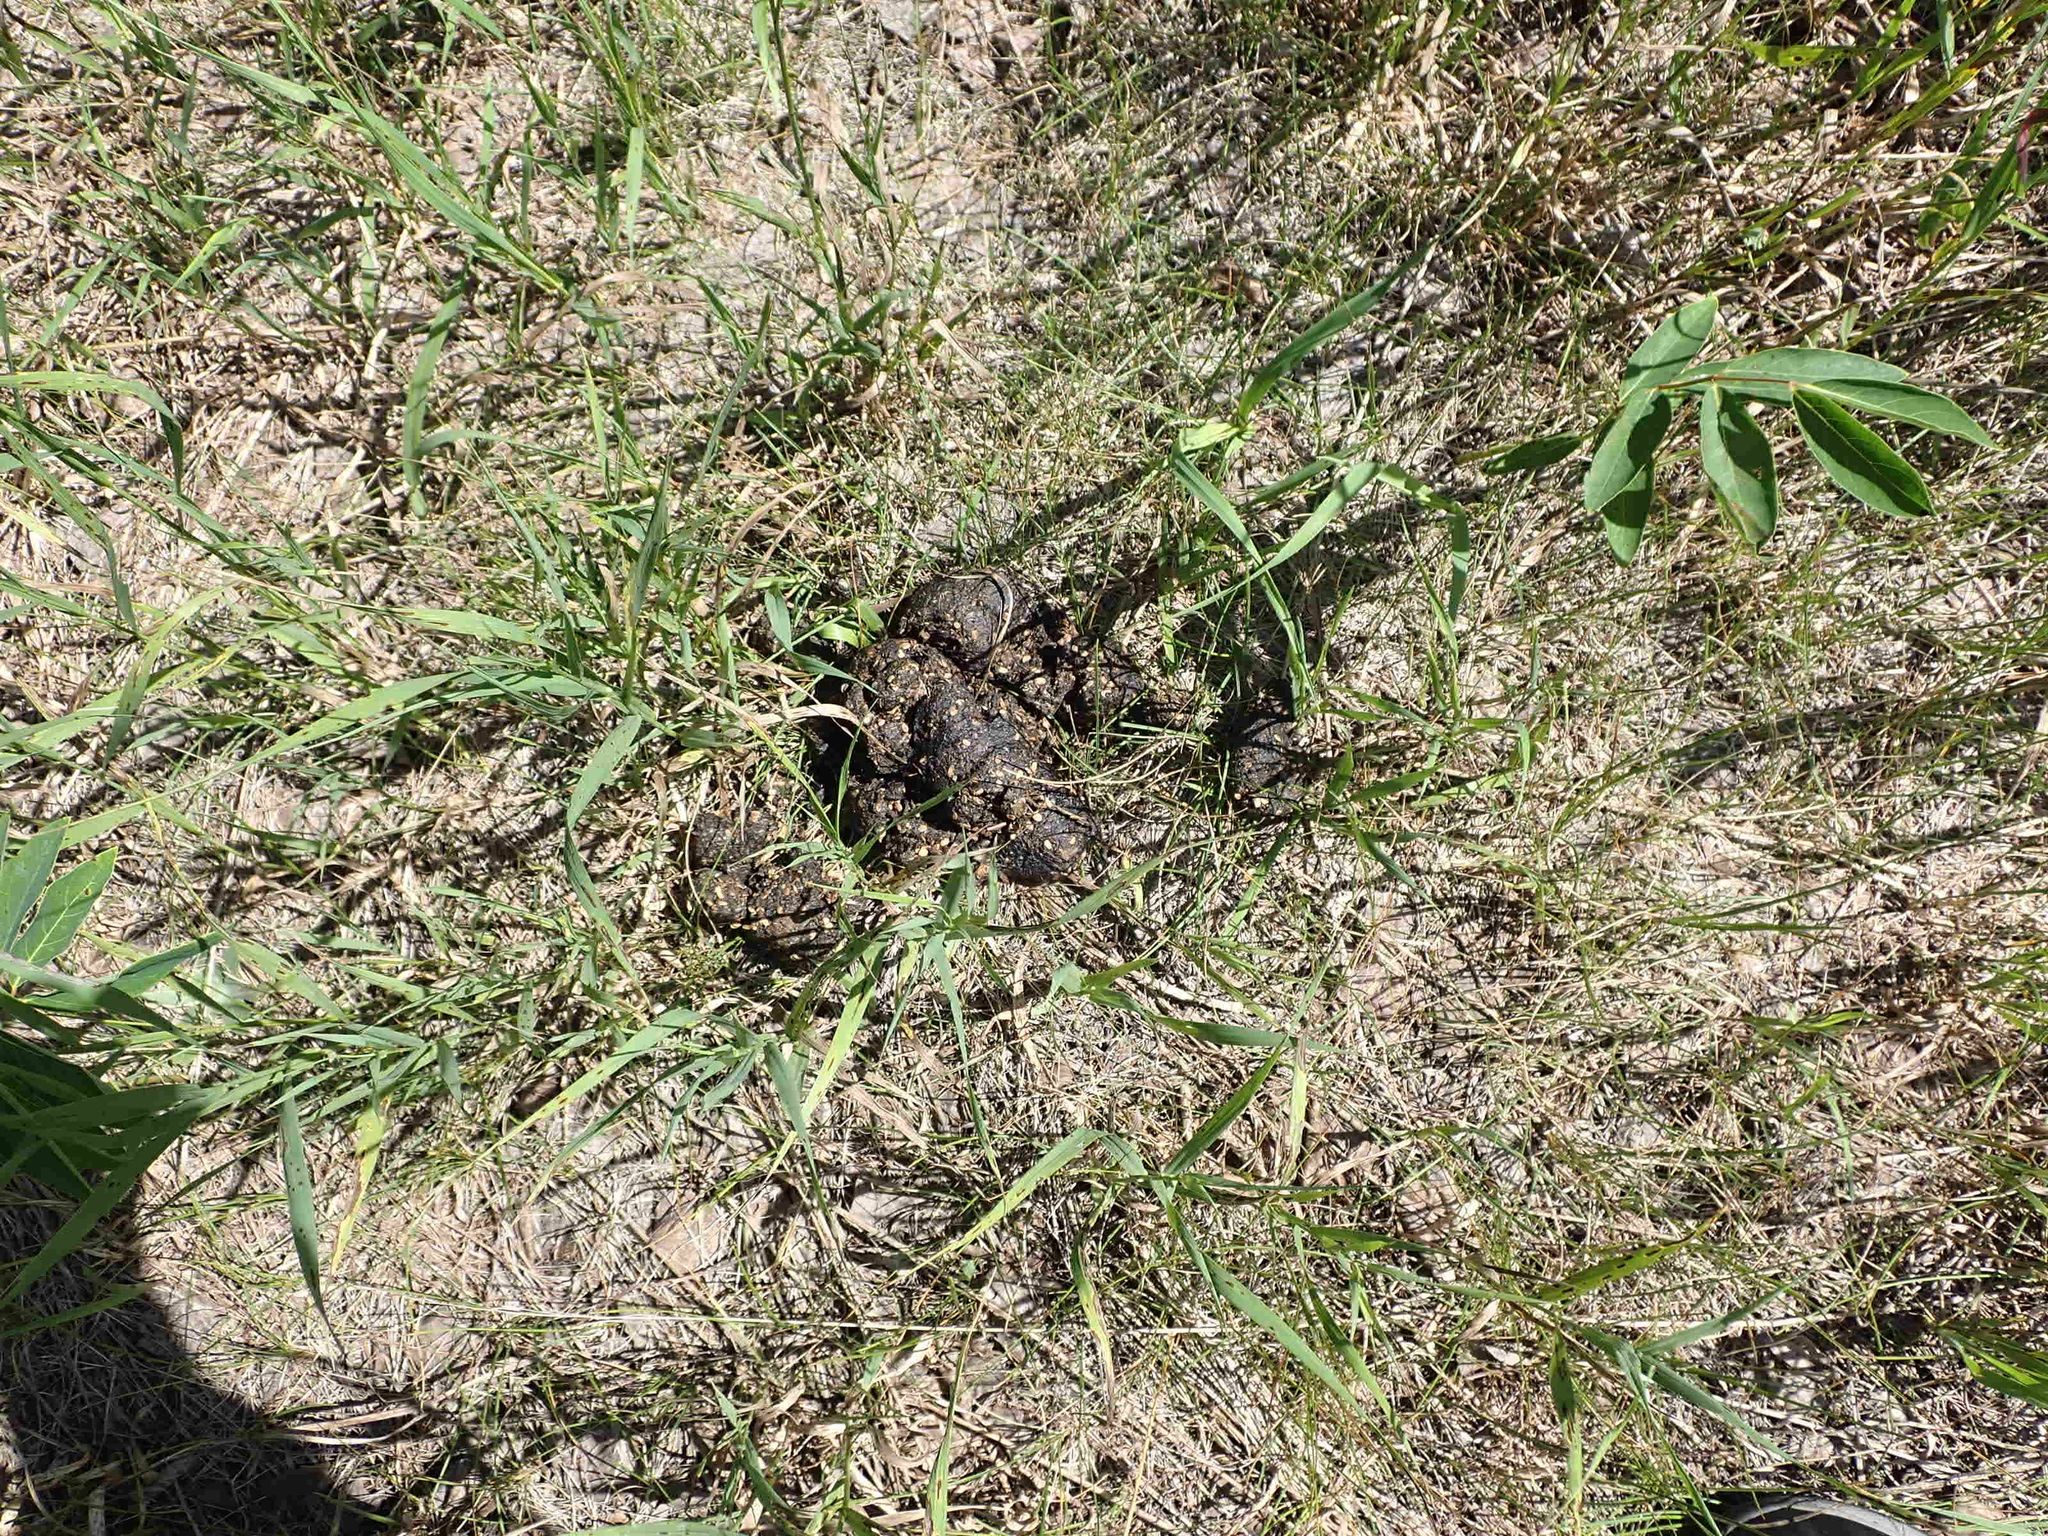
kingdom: Animalia
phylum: Chordata
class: Mammalia
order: Carnivora
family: Ursidae
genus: Ursus
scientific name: Ursus americanus
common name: American black bear
